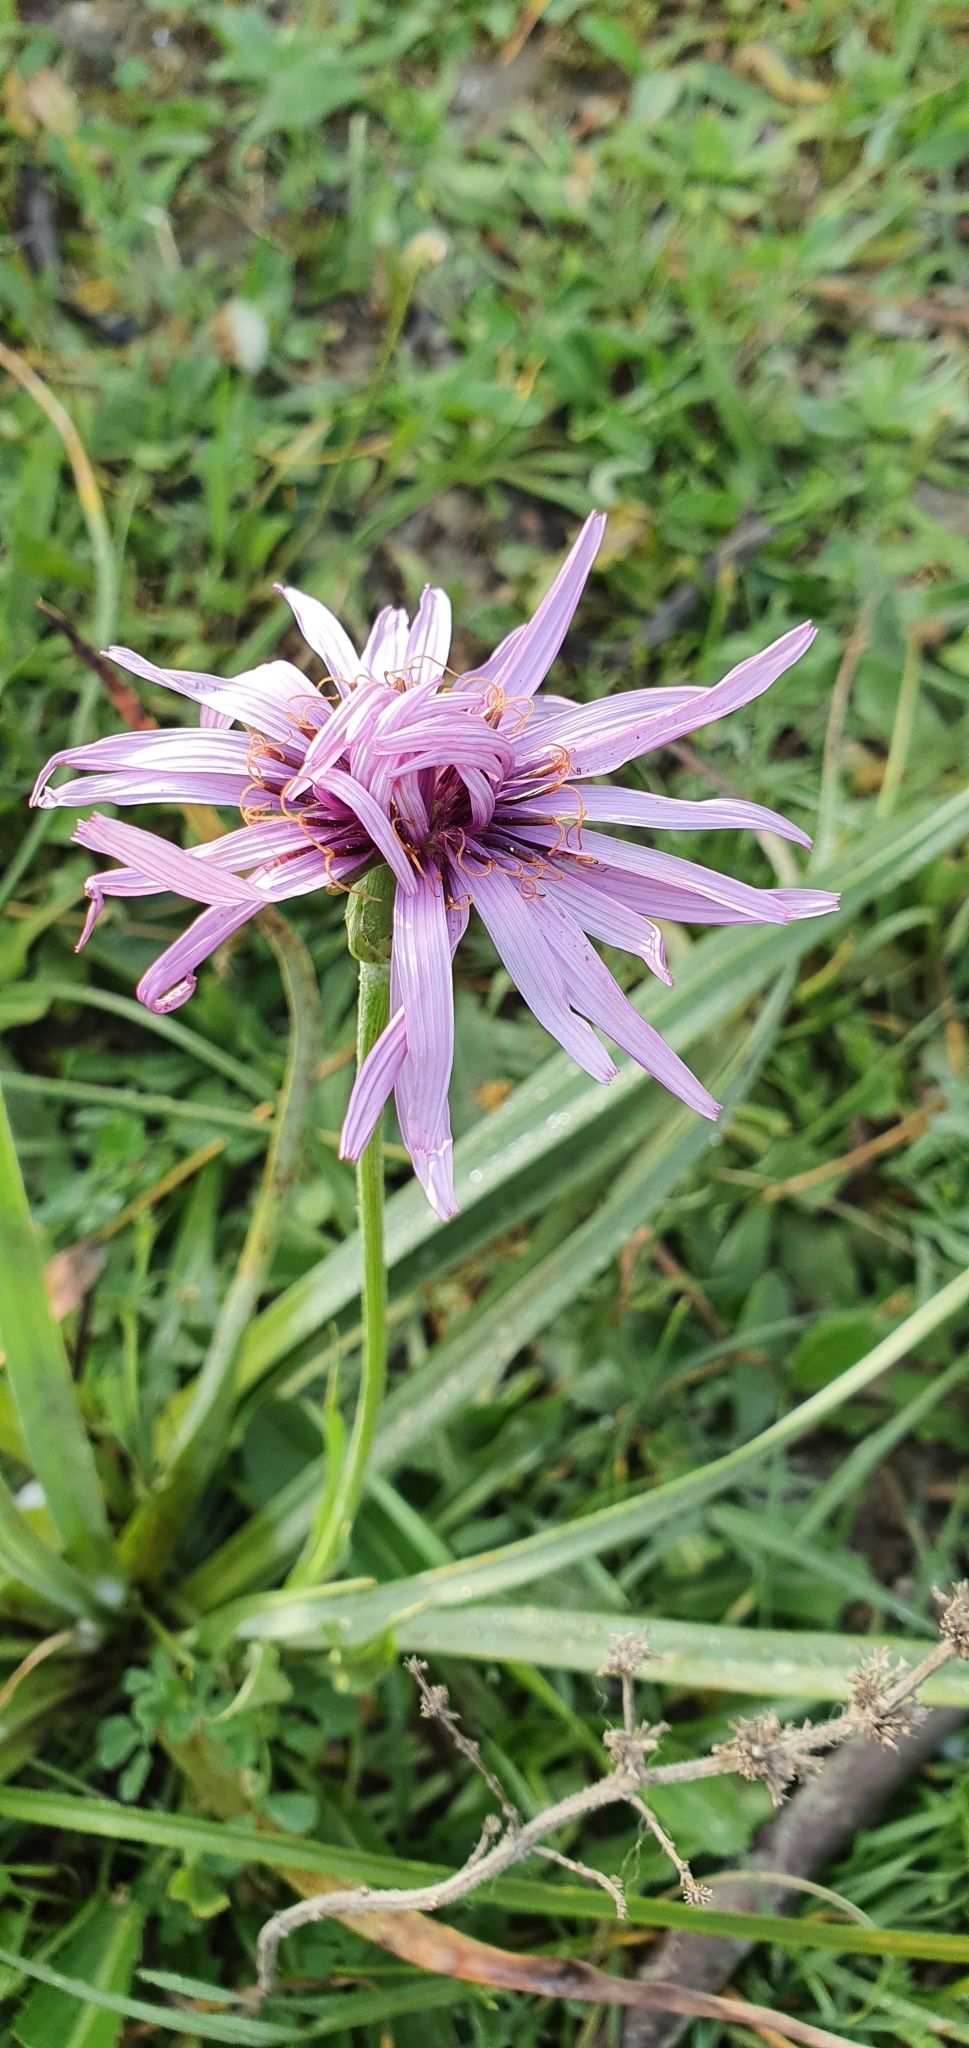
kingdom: Plantae
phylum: Tracheophyta
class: Magnoliopsida
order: Asterales
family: Asteraceae
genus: Pseudopodospermum
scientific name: Pseudopodospermum undulatum
